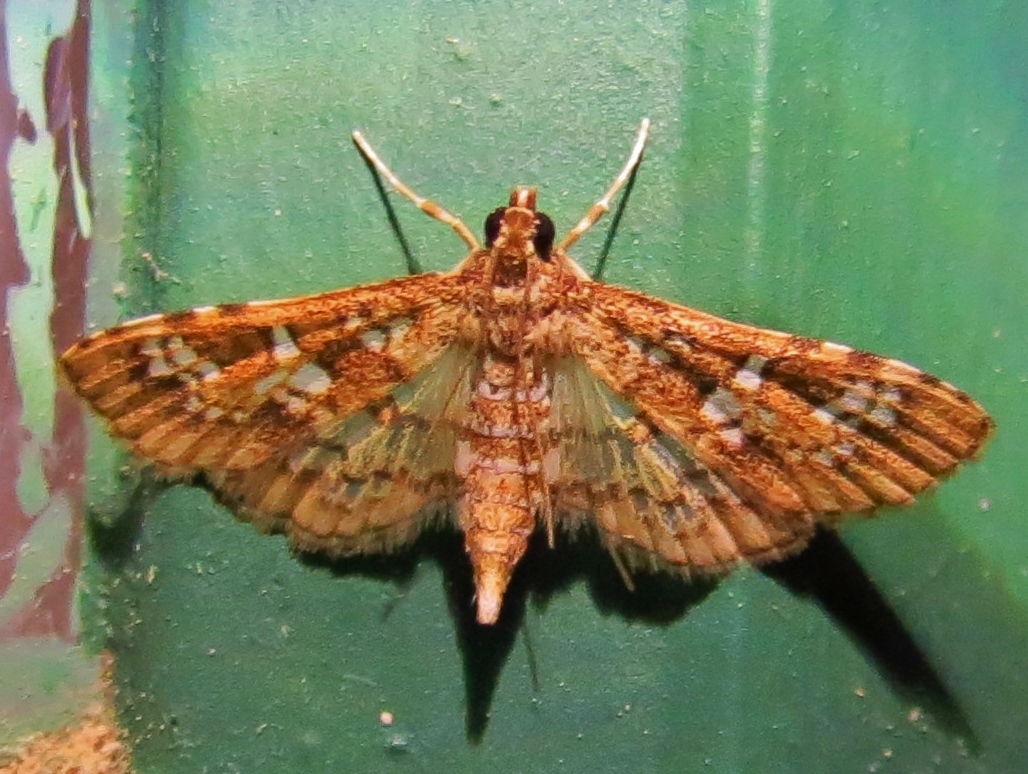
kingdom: Animalia
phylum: Arthropoda
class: Insecta
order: Lepidoptera
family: Crambidae
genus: Samea
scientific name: Samea multiplicalis
